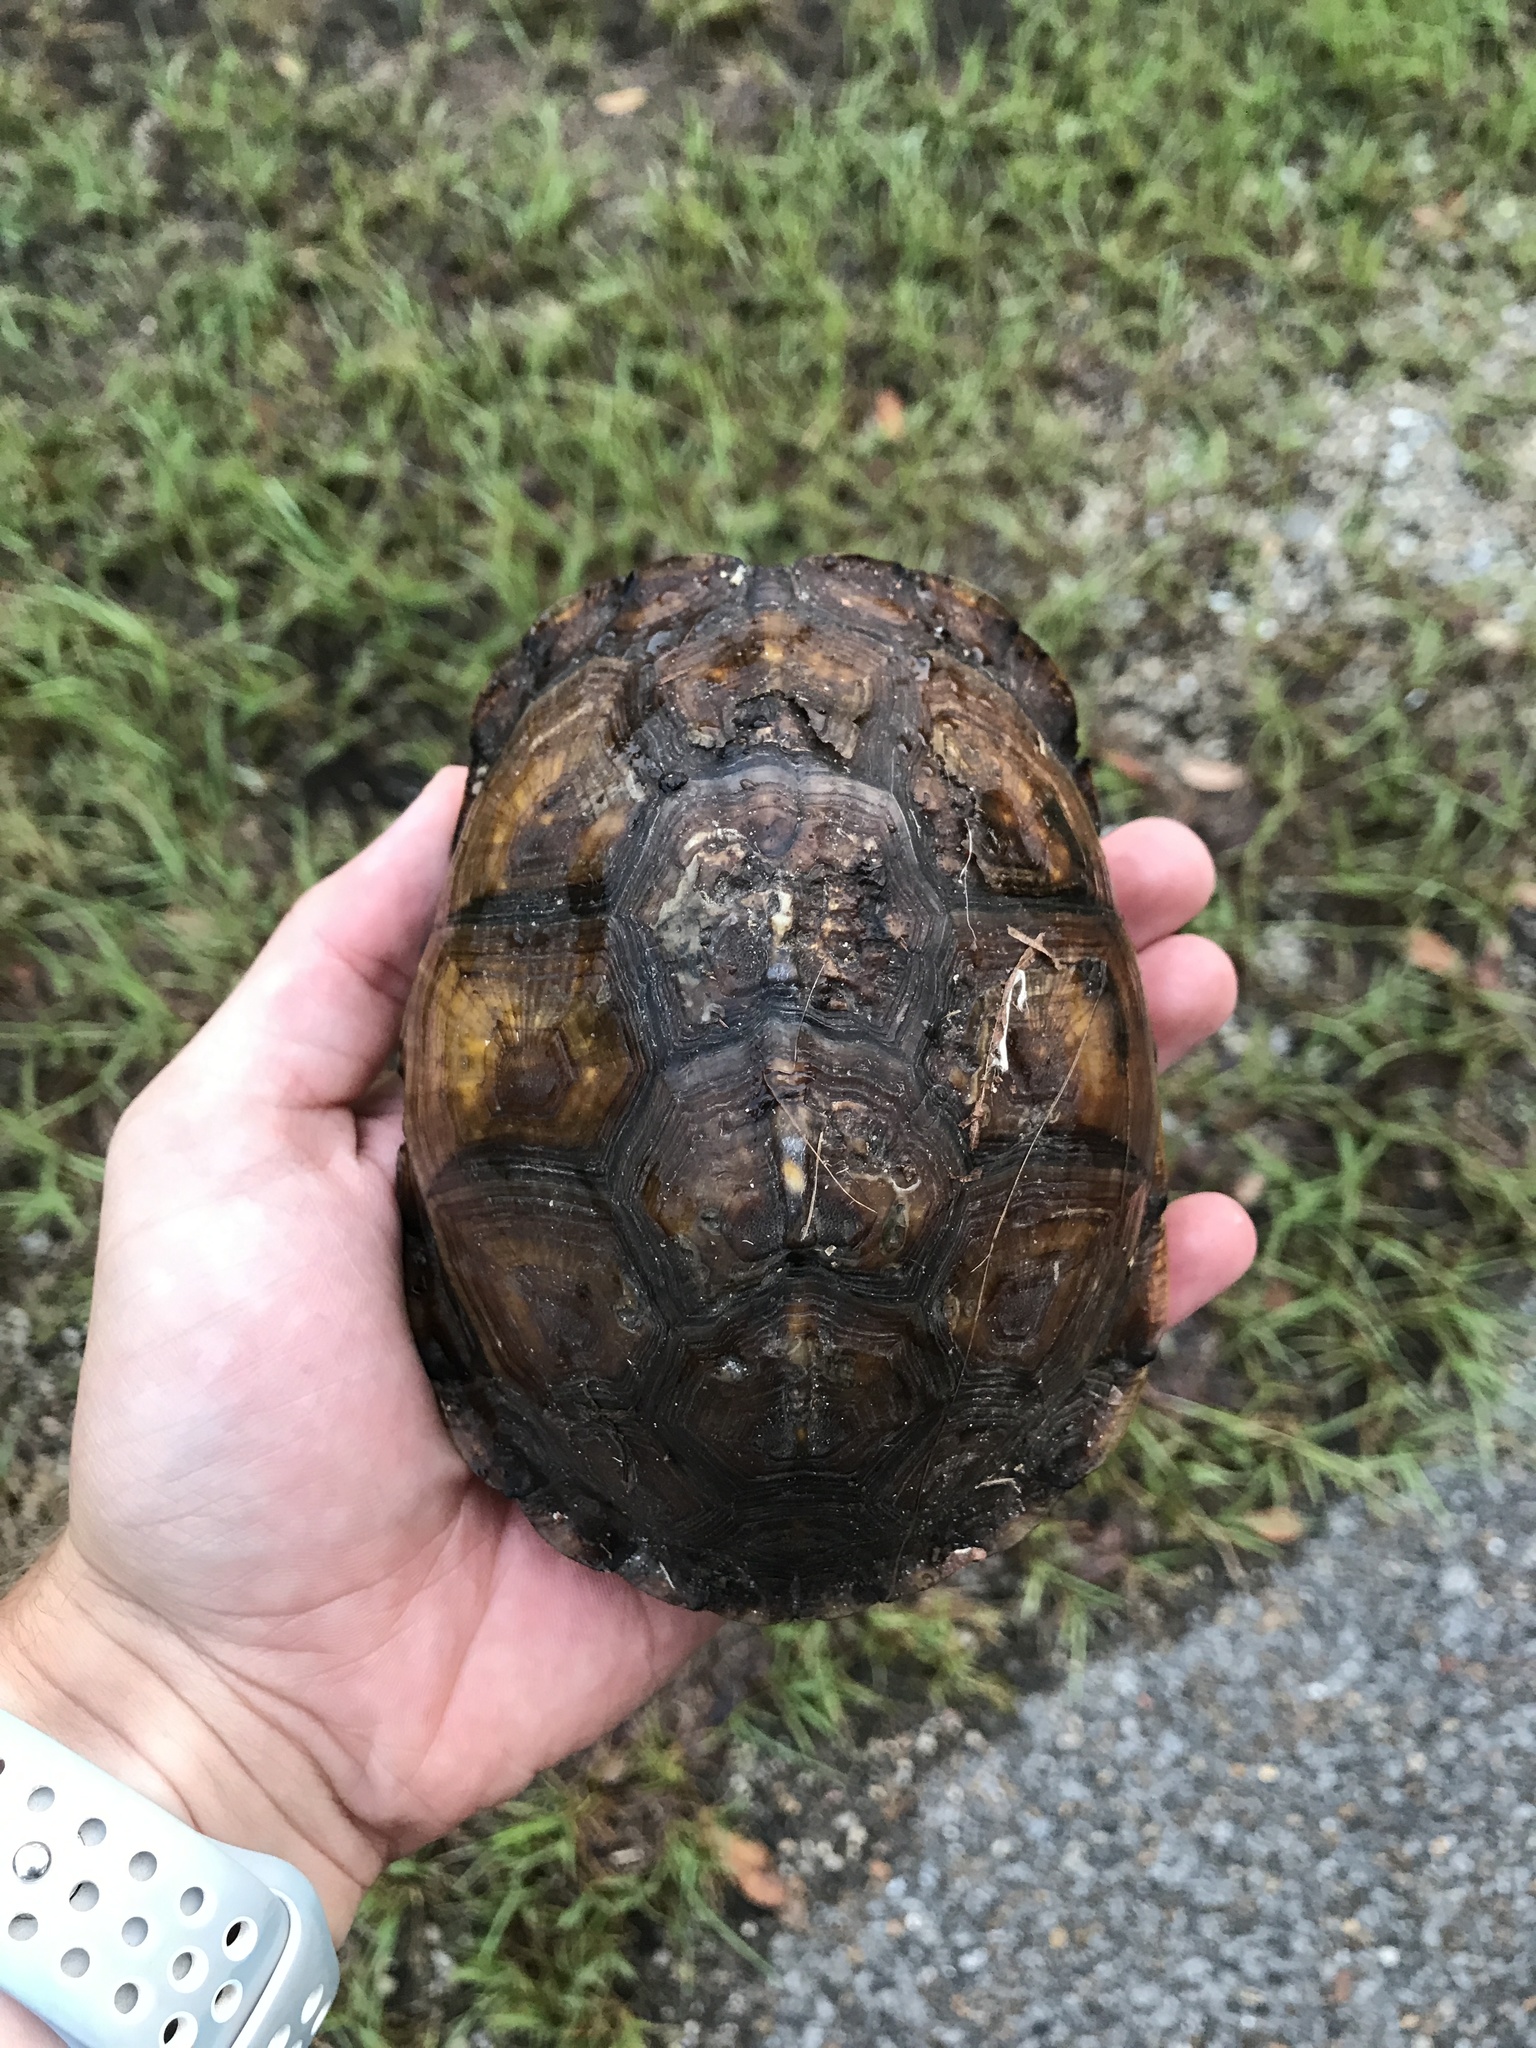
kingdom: Animalia
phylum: Chordata
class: Testudines
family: Emydidae
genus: Terrapene
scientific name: Terrapene carolina
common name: Common box turtle
